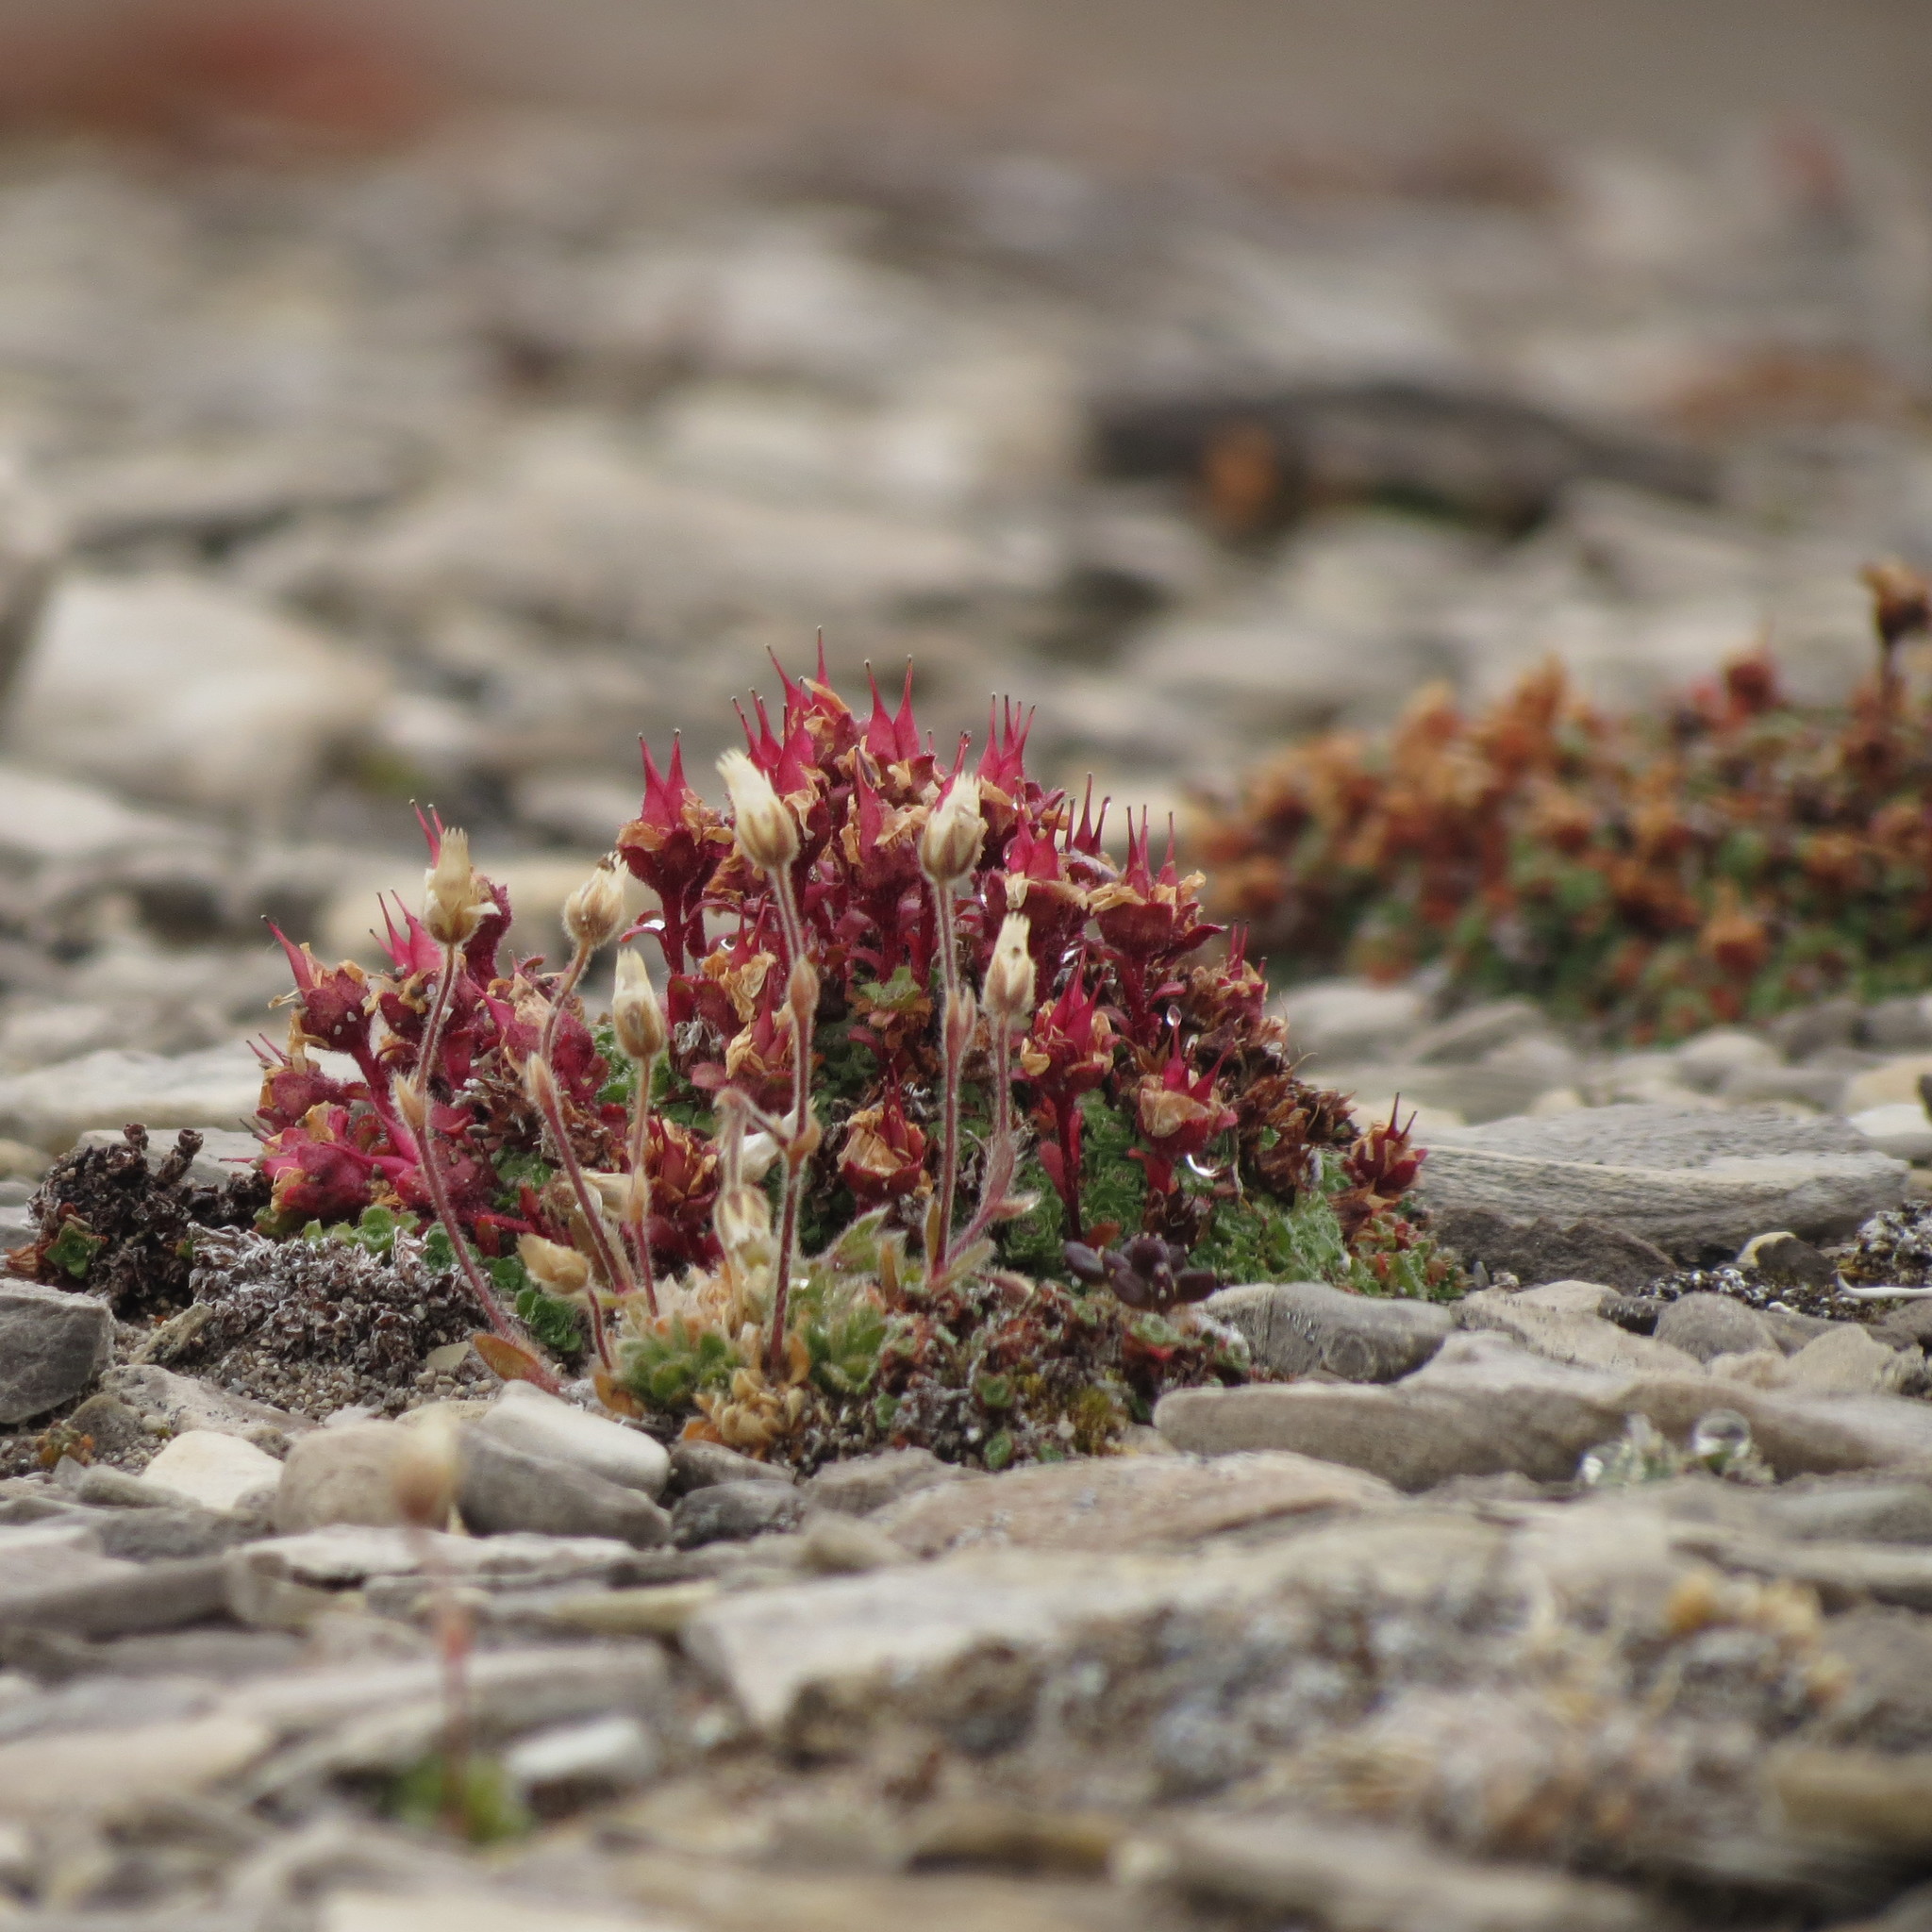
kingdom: Plantae
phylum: Tracheophyta
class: Magnoliopsida
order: Saxifragales
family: Saxifragaceae
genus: Saxifraga
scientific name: Saxifraga oppositifolia
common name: Purple saxifrage
